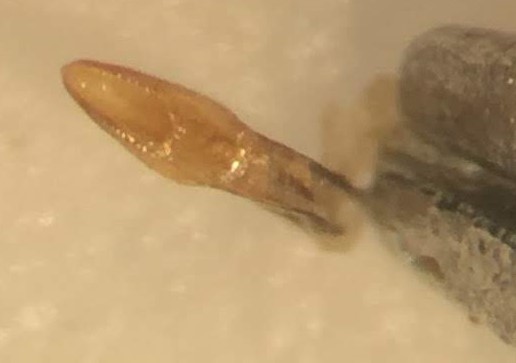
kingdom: Animalia
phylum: Arthropoda
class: Insecta
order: Coleoptera
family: Dytiscidae
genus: Neoporus
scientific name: Neoporus psammodytes
